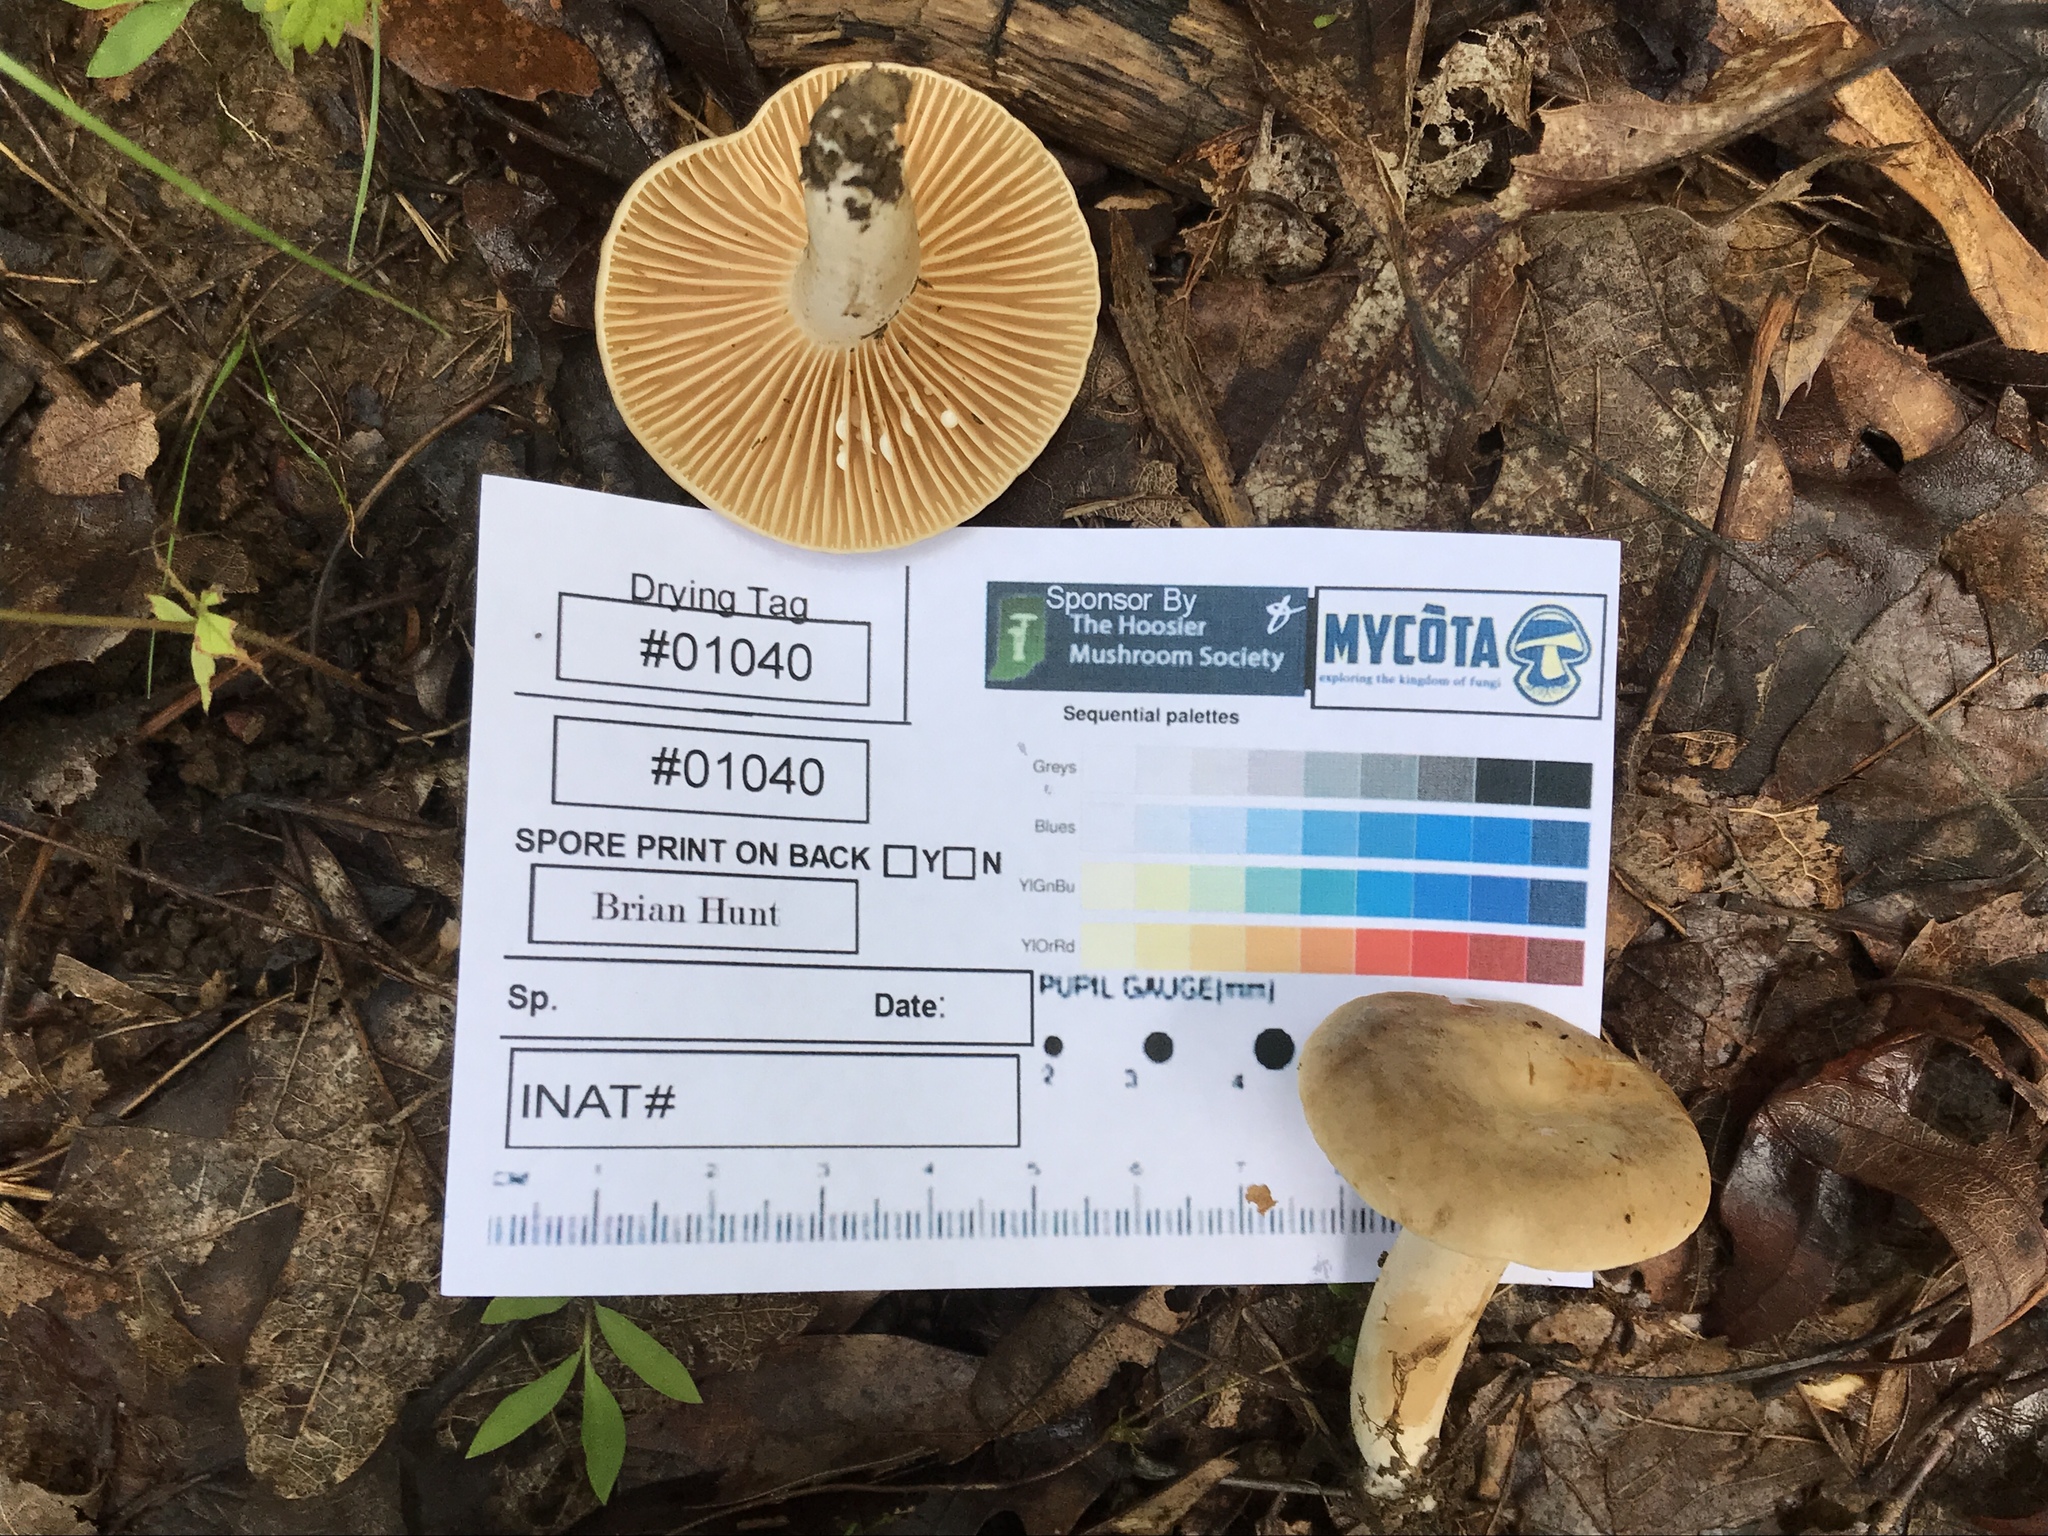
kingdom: Fungi
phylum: Basidiomycota
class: Agaricomycetes
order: Russulales
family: Russulaceae
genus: Lactarius
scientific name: Lactarius subvernalis
